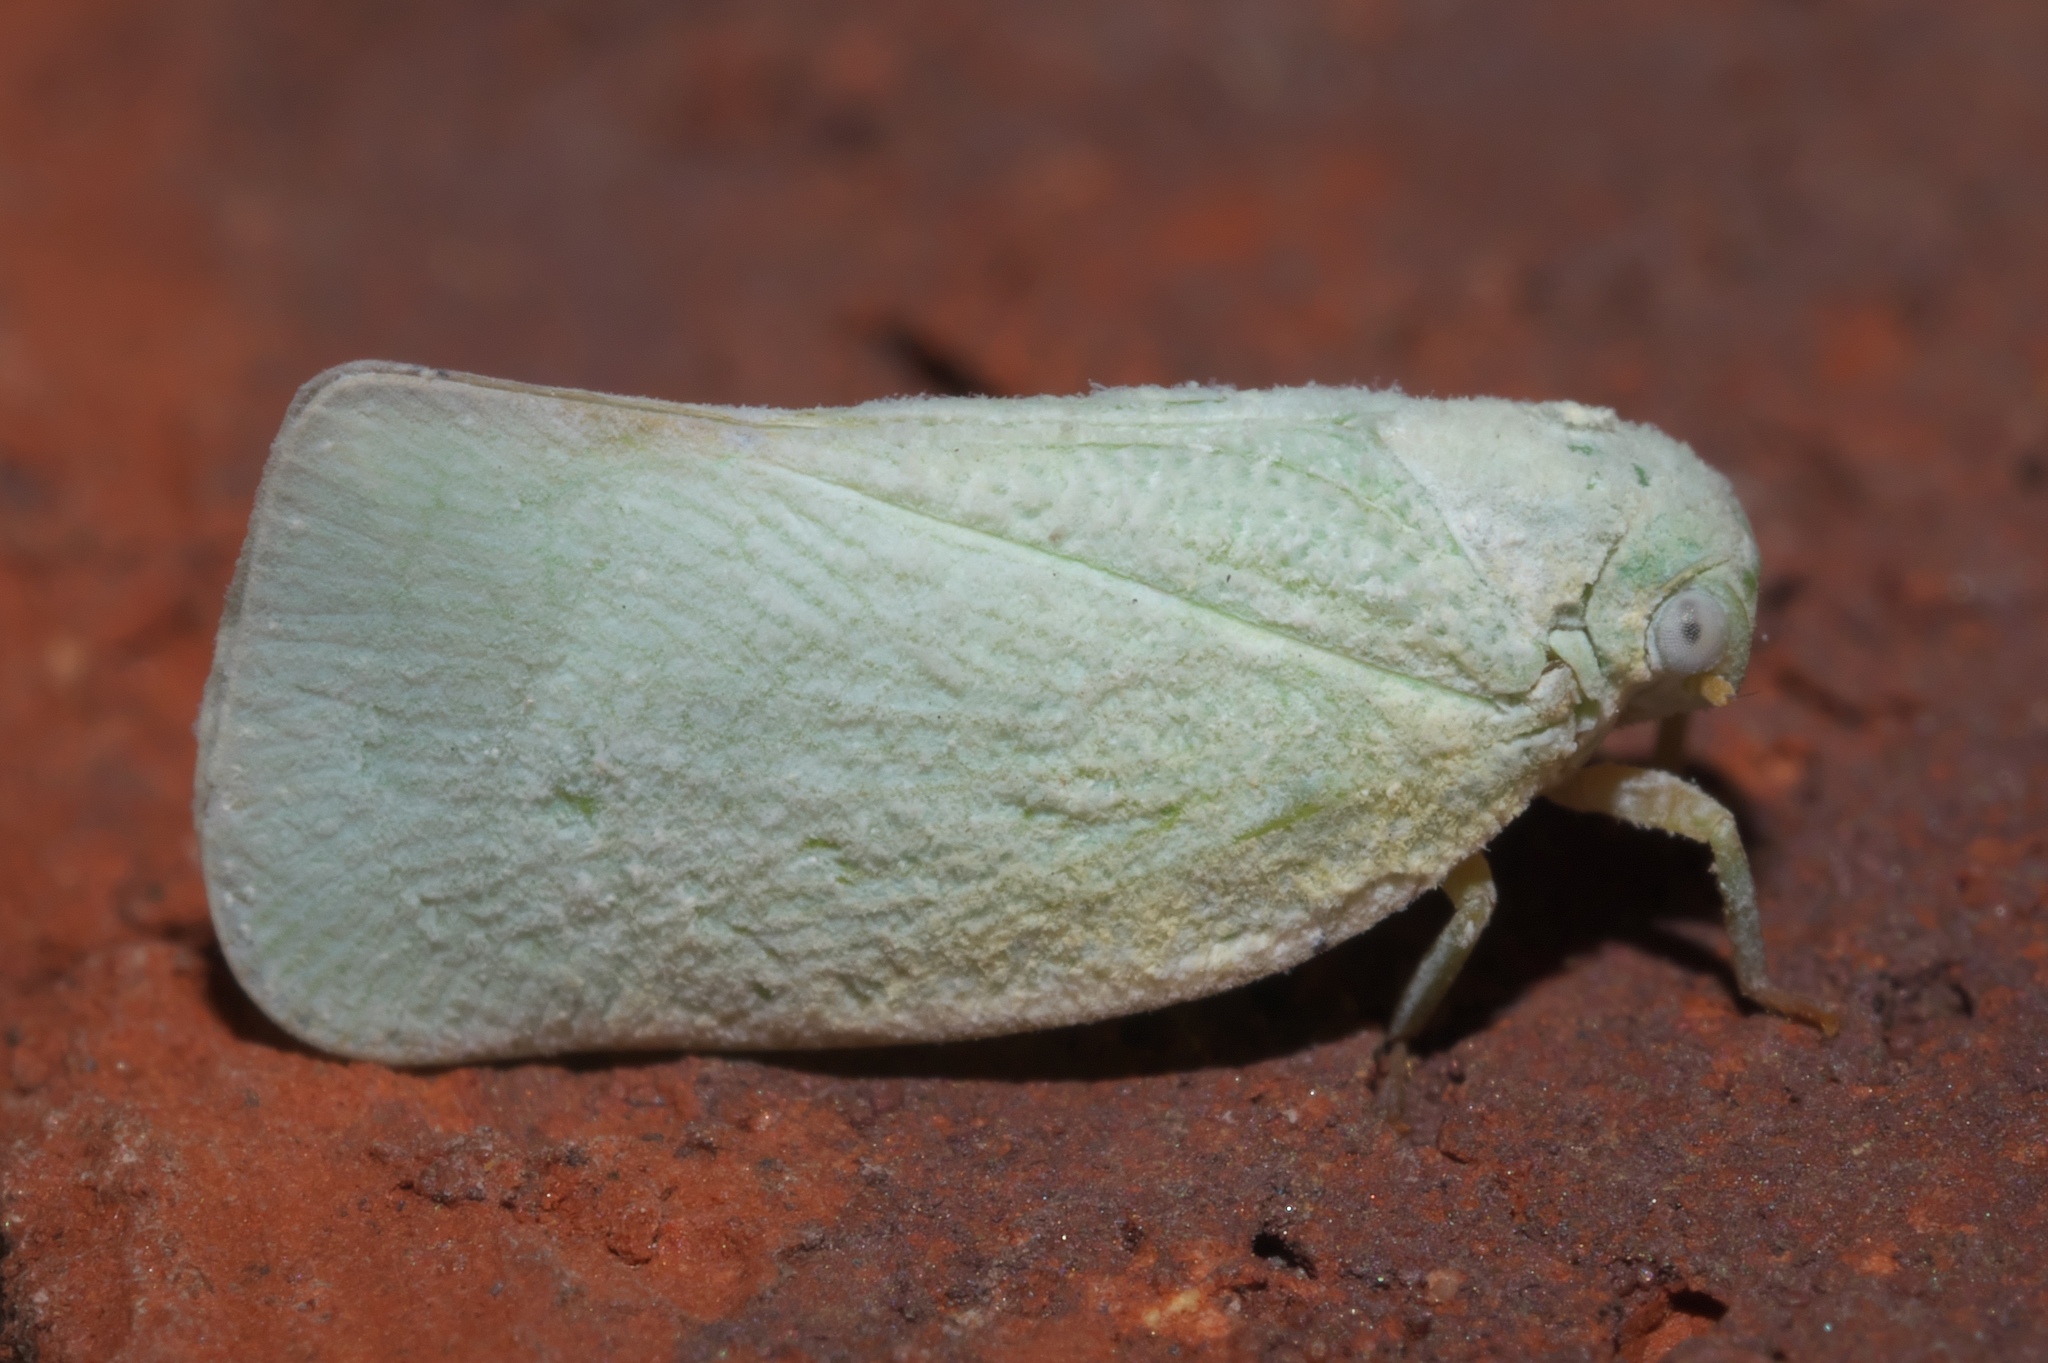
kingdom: Animalia
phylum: Arthropoda
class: Insecta
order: Hemiptera
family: Flatidae
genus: Flatormenis
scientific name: Flatormenis proxima
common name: Northern flatid planthopper
